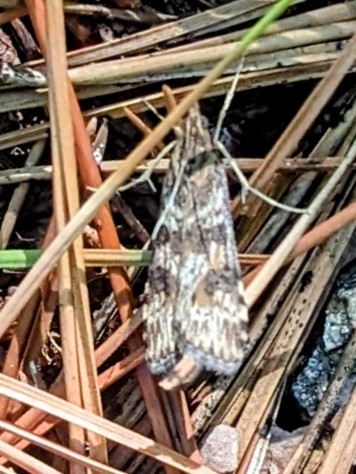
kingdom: Animalia
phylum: Arthropoda
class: Insecta
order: Lepidoptera
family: Crambidae
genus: Nomophila
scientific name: Nomophila nearctica
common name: American rush veneer
